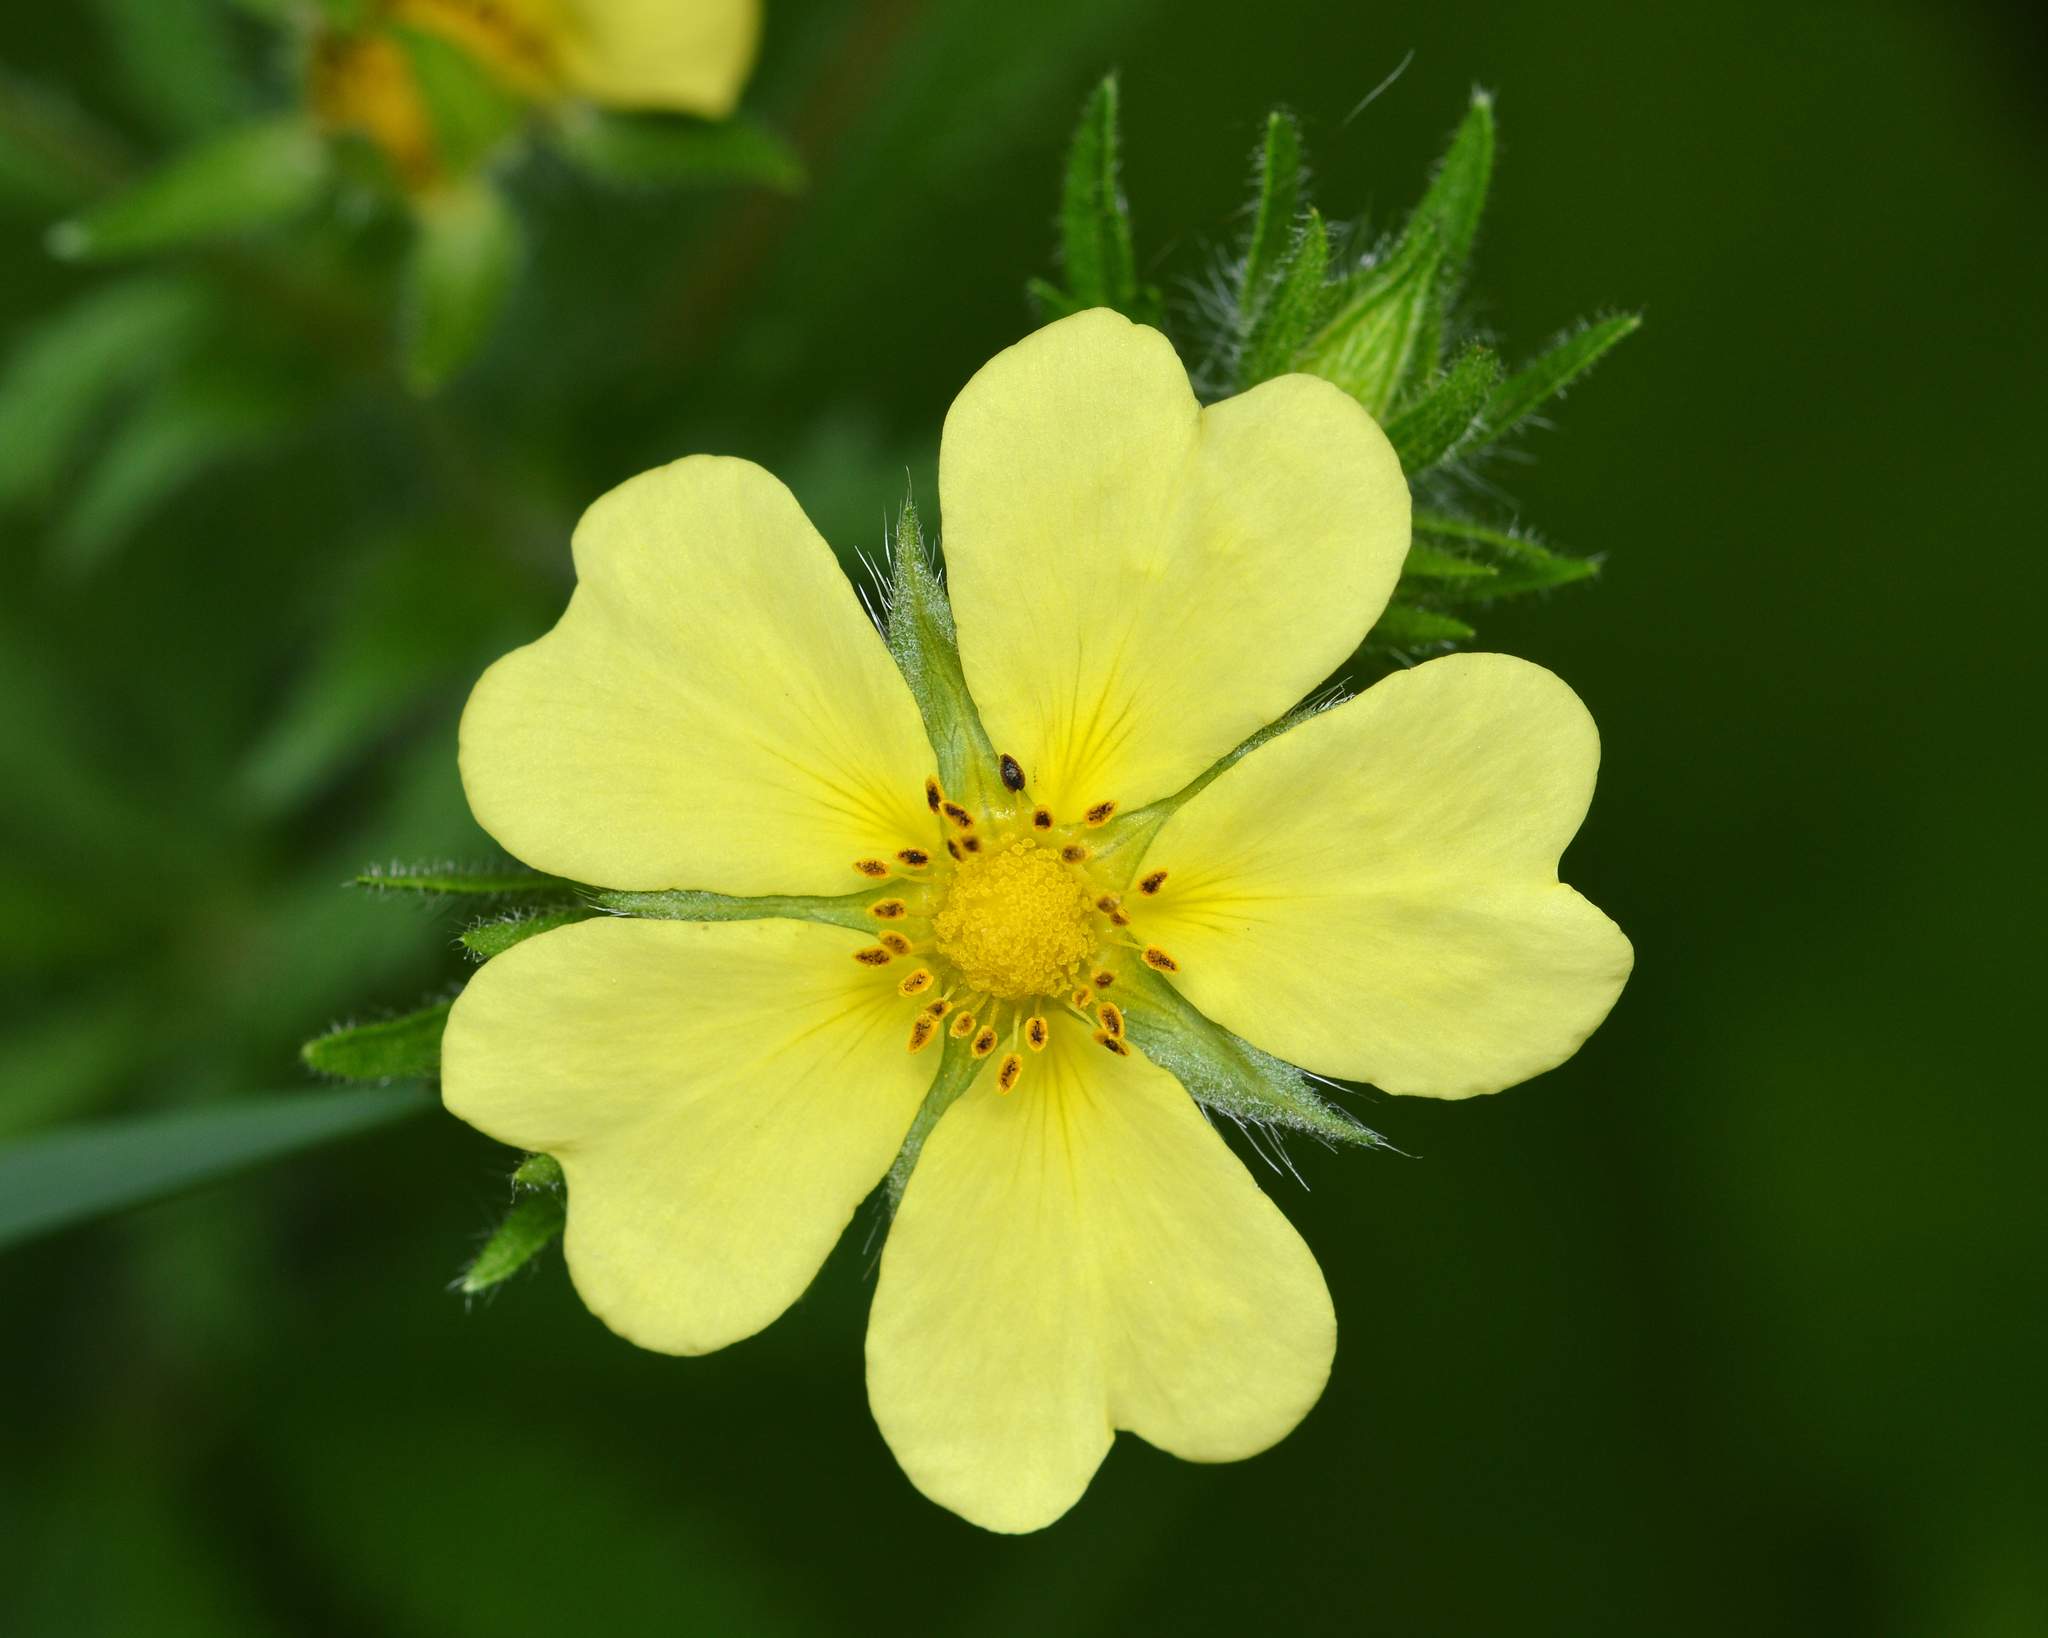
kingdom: Plantae
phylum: Tracheophyta
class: Magnoliopsida
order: Rosales
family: Rosaceae
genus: Potentilla
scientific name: Potentilla recta
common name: Sulphur cinquefoil
